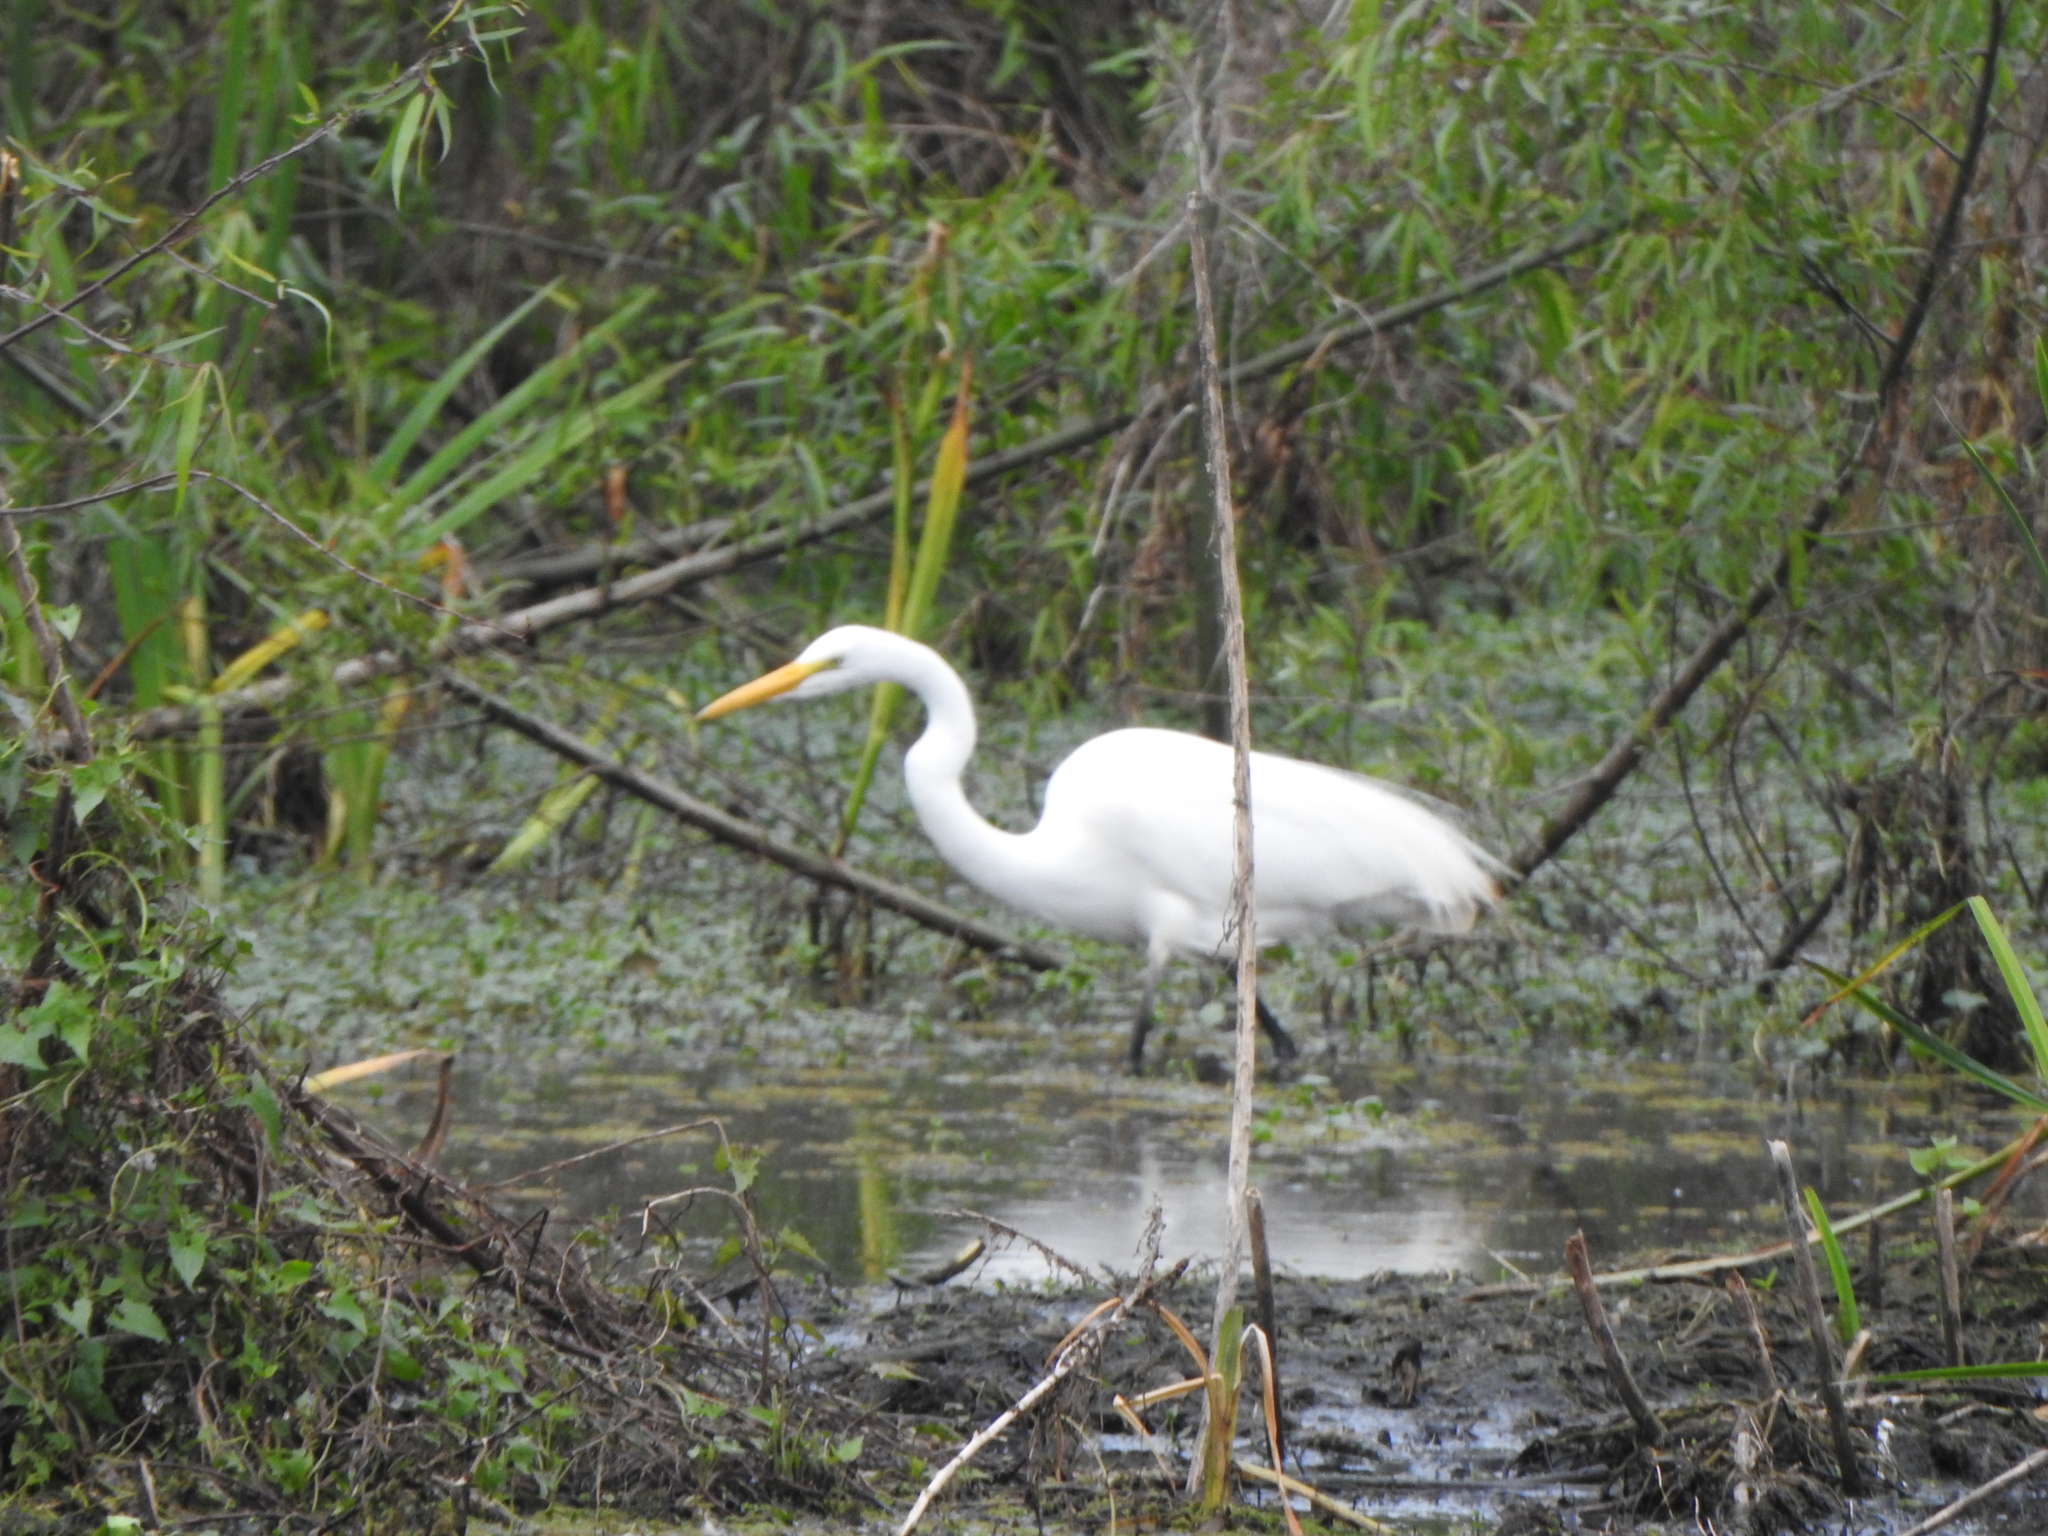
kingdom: Animalia
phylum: Chordata
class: Aves
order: Pelecaniformes
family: Ardeidae
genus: Ardea
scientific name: Ardea alba
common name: Great egret
